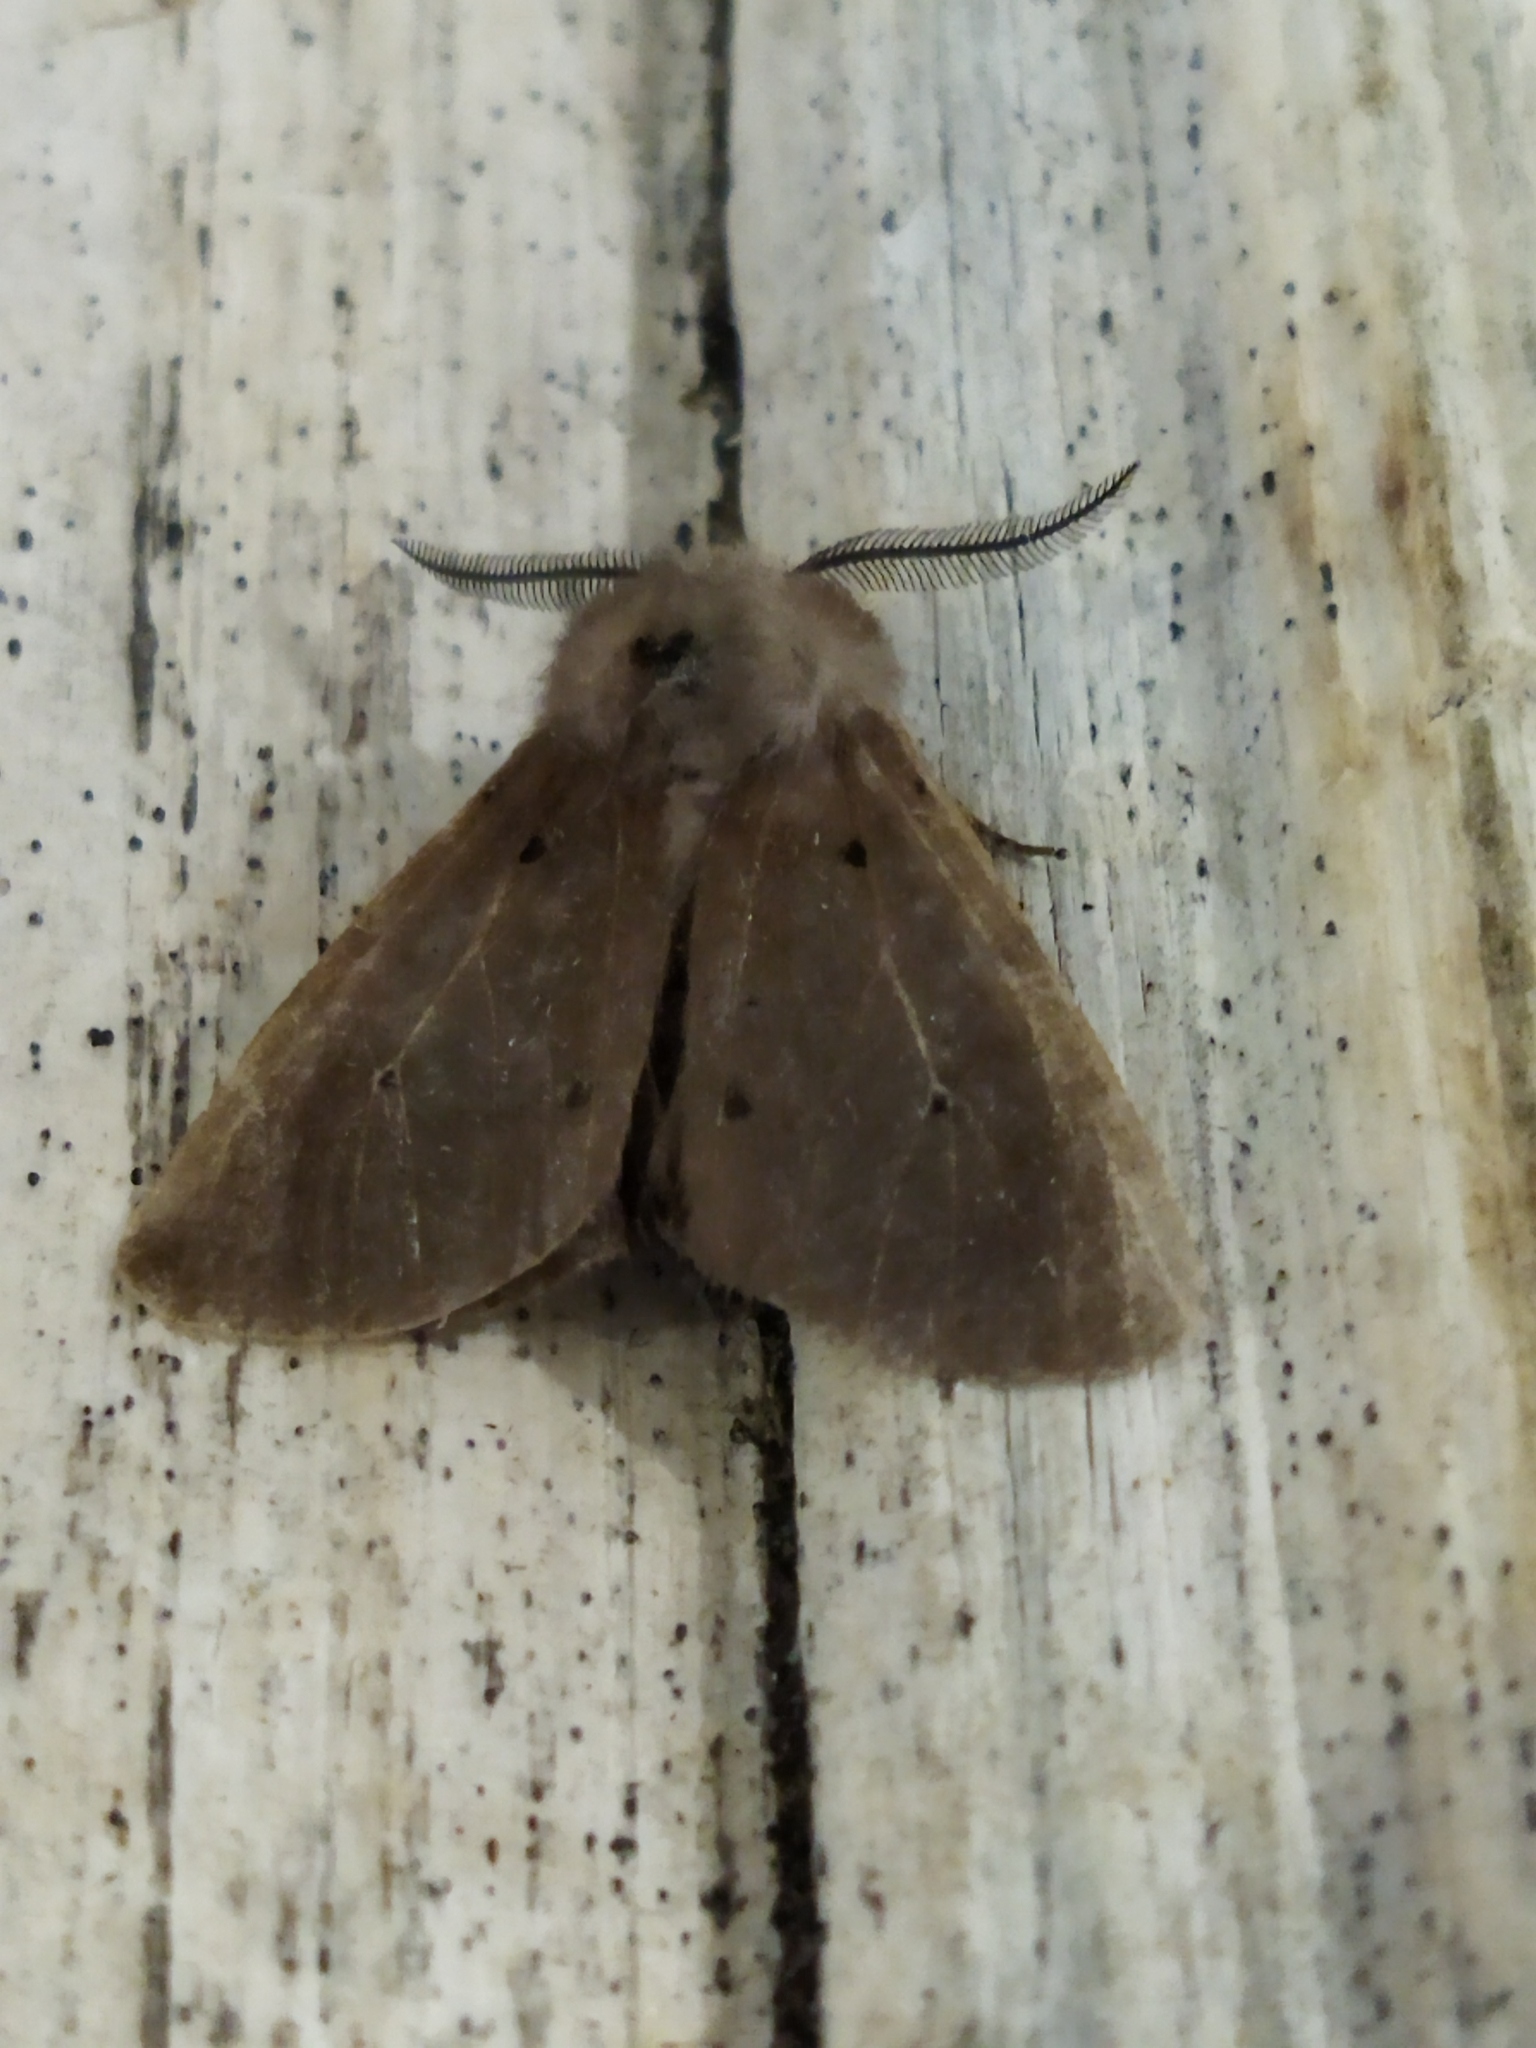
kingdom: Animalia
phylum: Arthropoda
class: Insecta
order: Lepidoptera
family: Erebidae
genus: Diaphora
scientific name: Diaphora mendica
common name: Muslin moth
